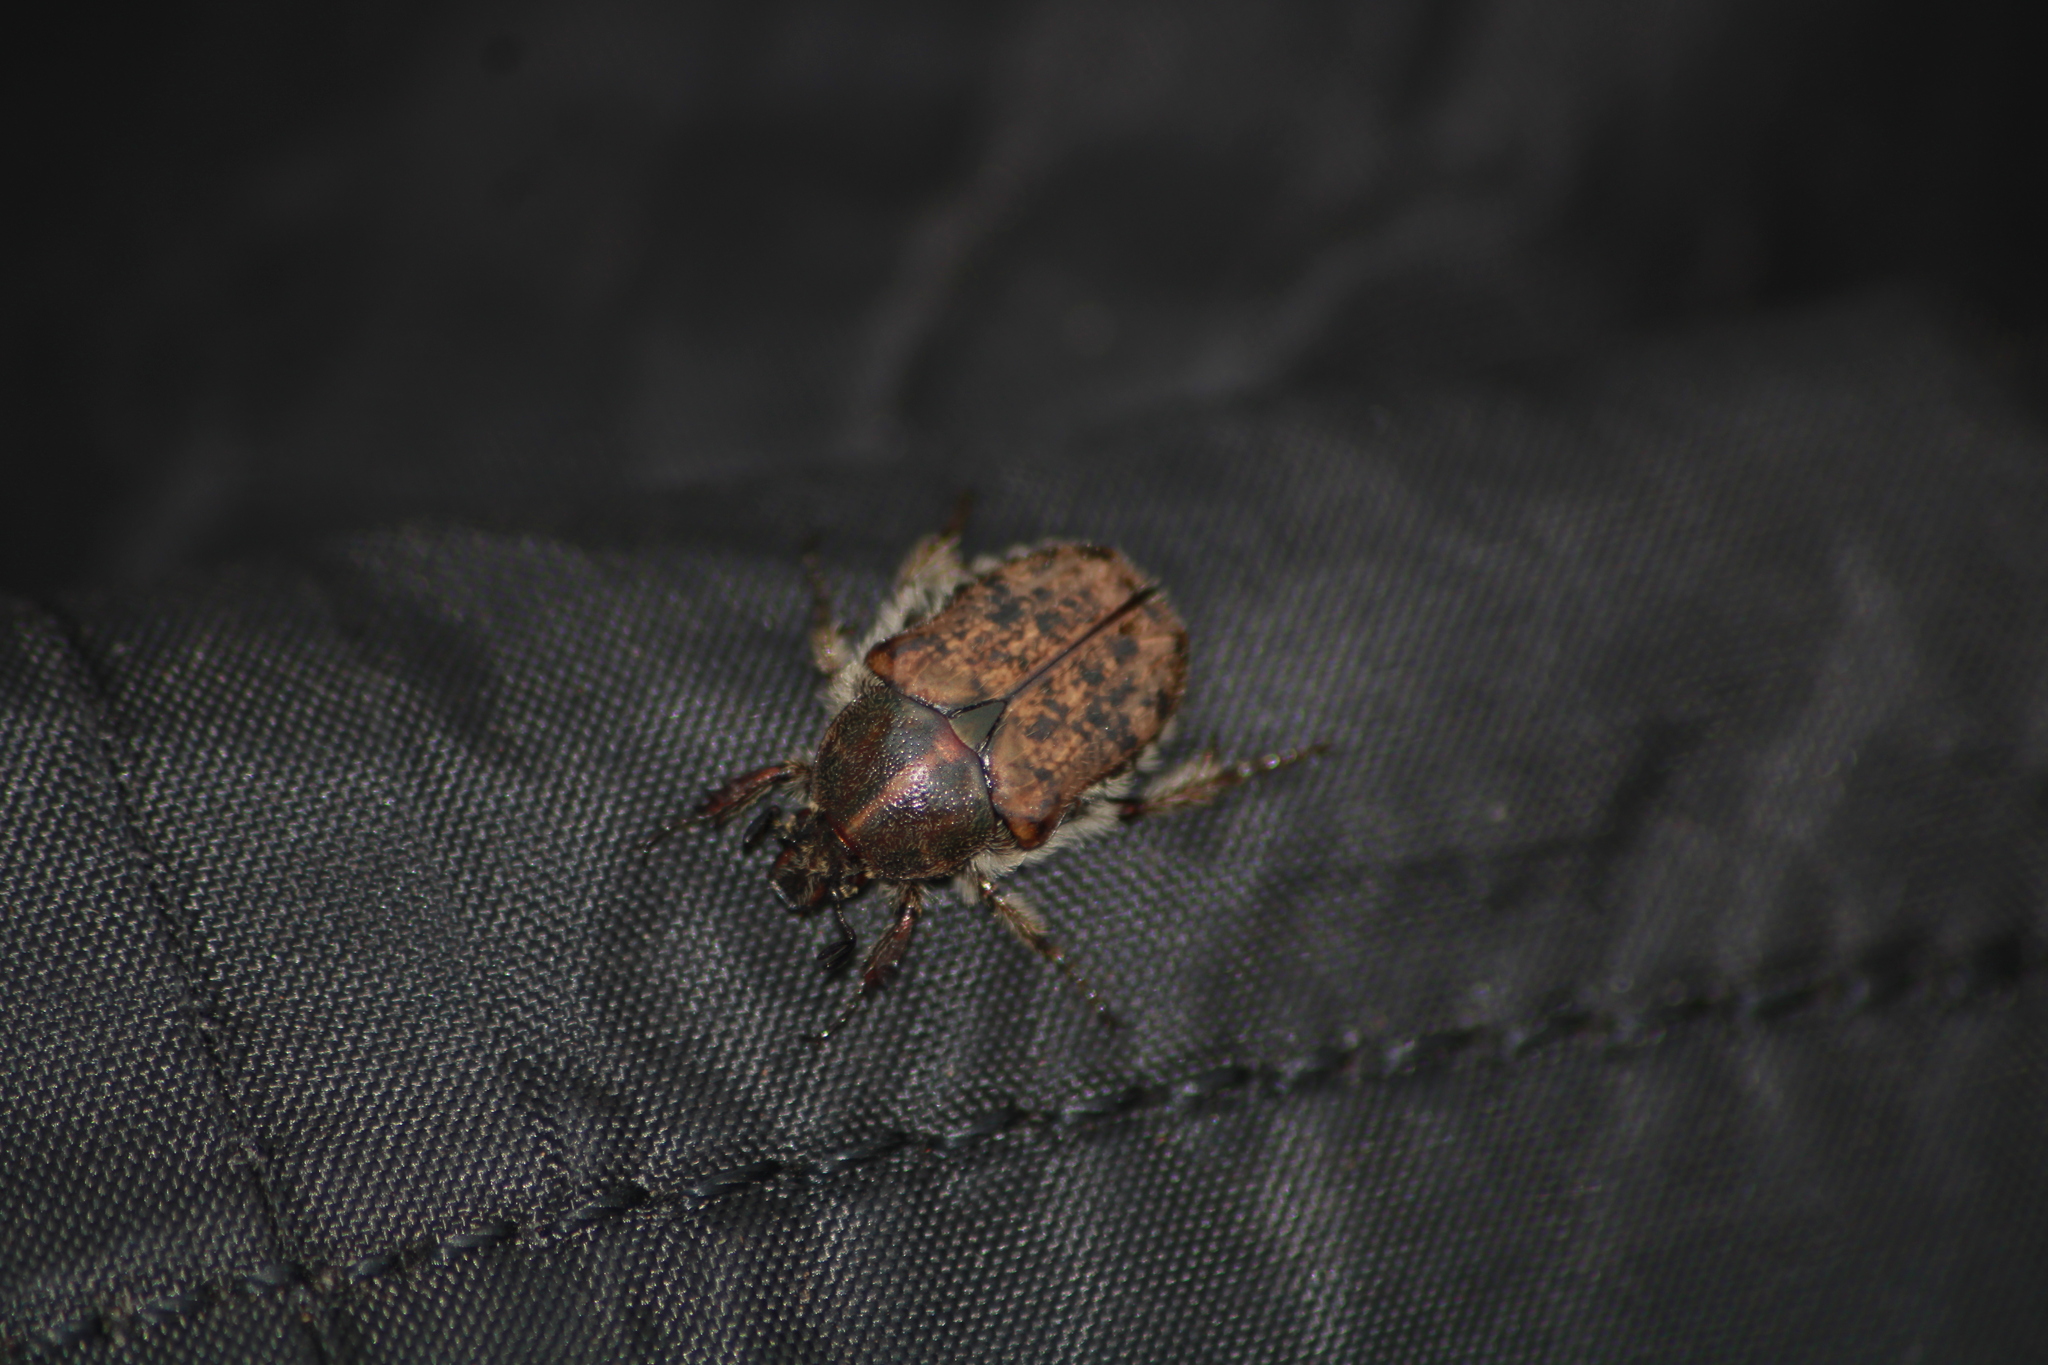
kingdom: Animalia
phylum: Arthropoda
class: Insecta
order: Coleoptera
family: Scarabaeidae
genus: Euphoria
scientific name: Euphoria inda
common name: Bumble flower beetle
